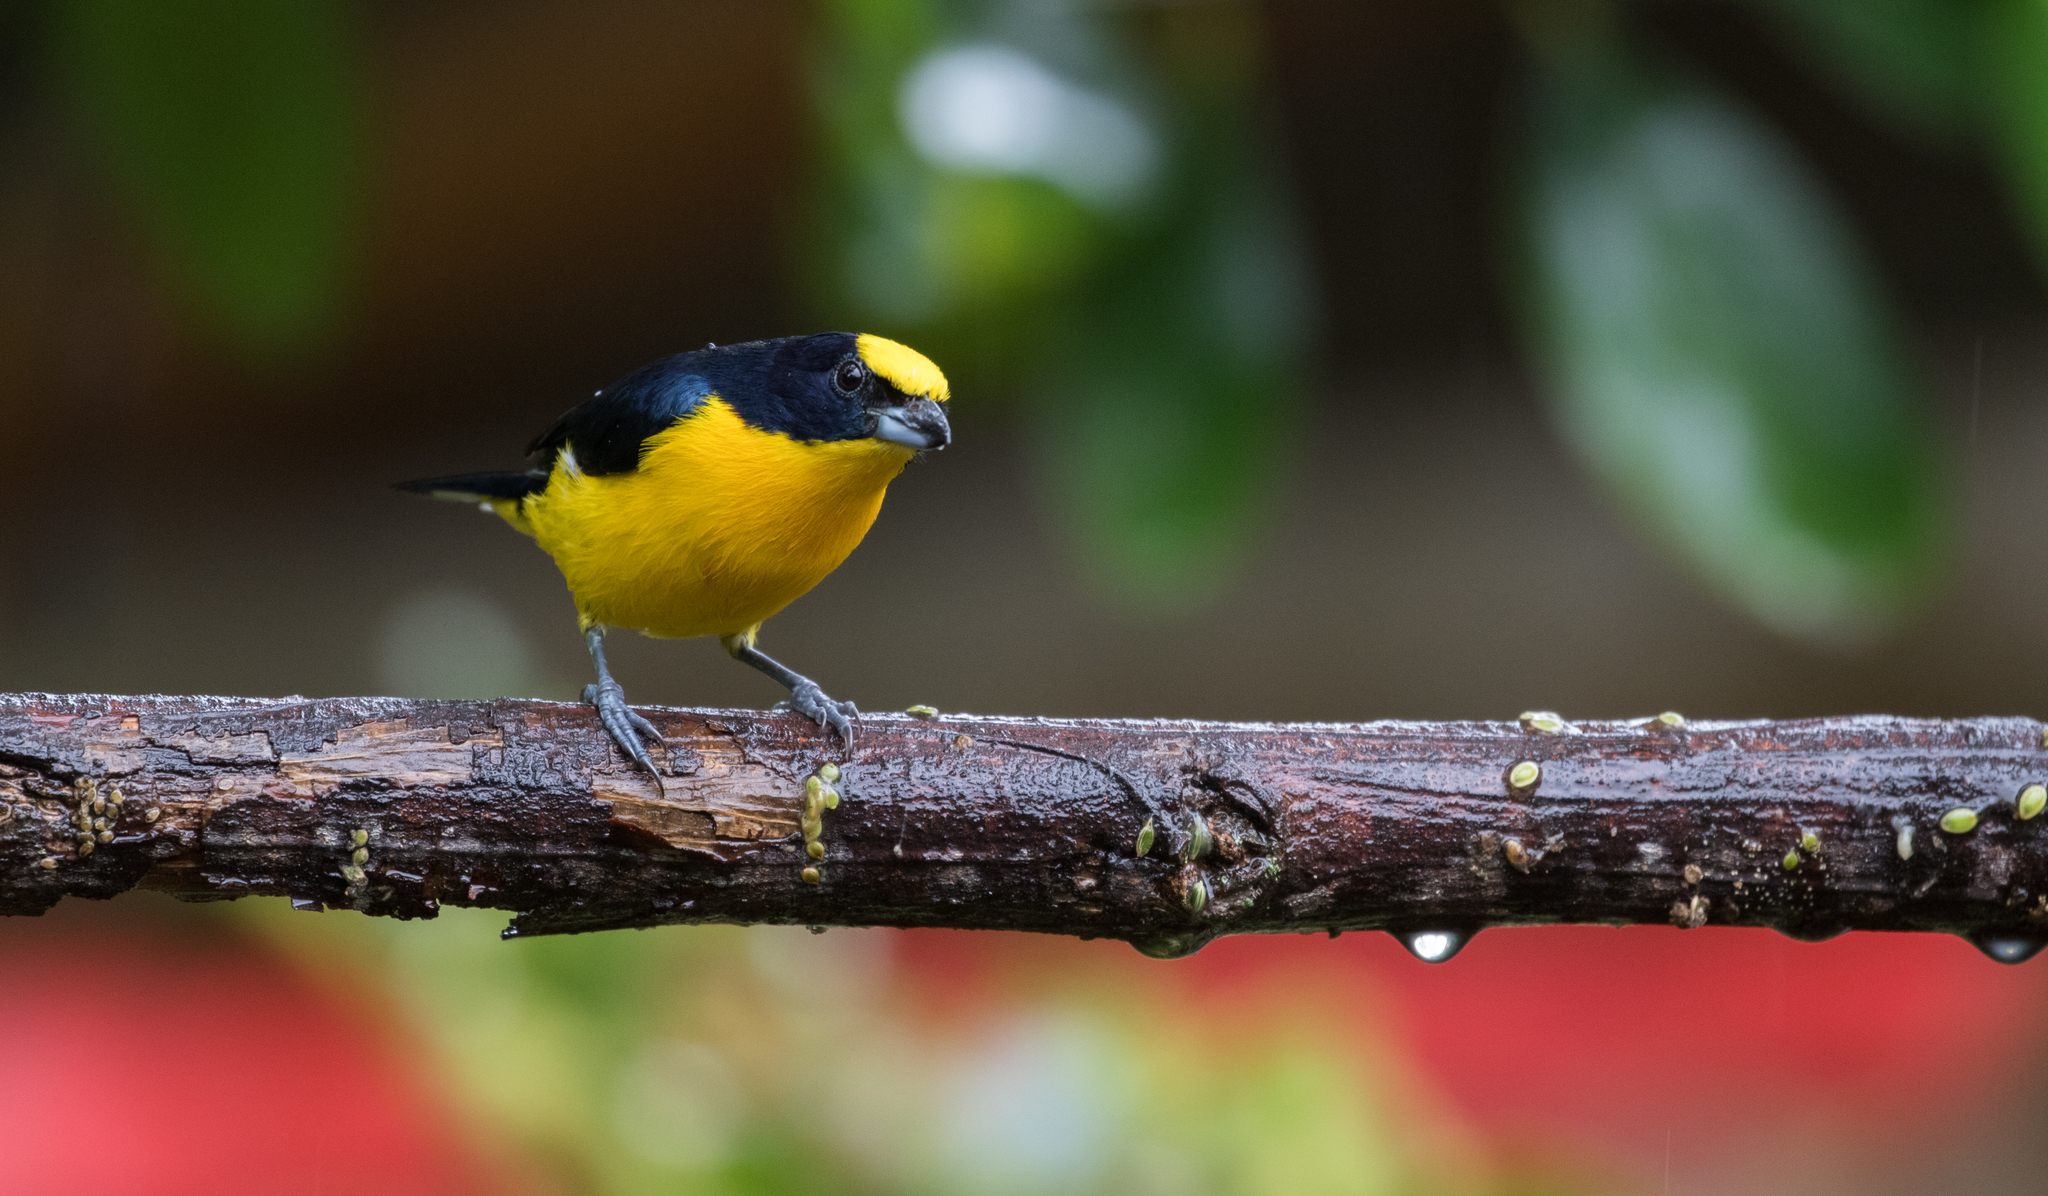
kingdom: Animalia
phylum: Chordata
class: Aves
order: Passeriformes
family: Fringillidae
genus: Euphonia
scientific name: Euphonia laniirostris
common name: Thick-billed euphonia
